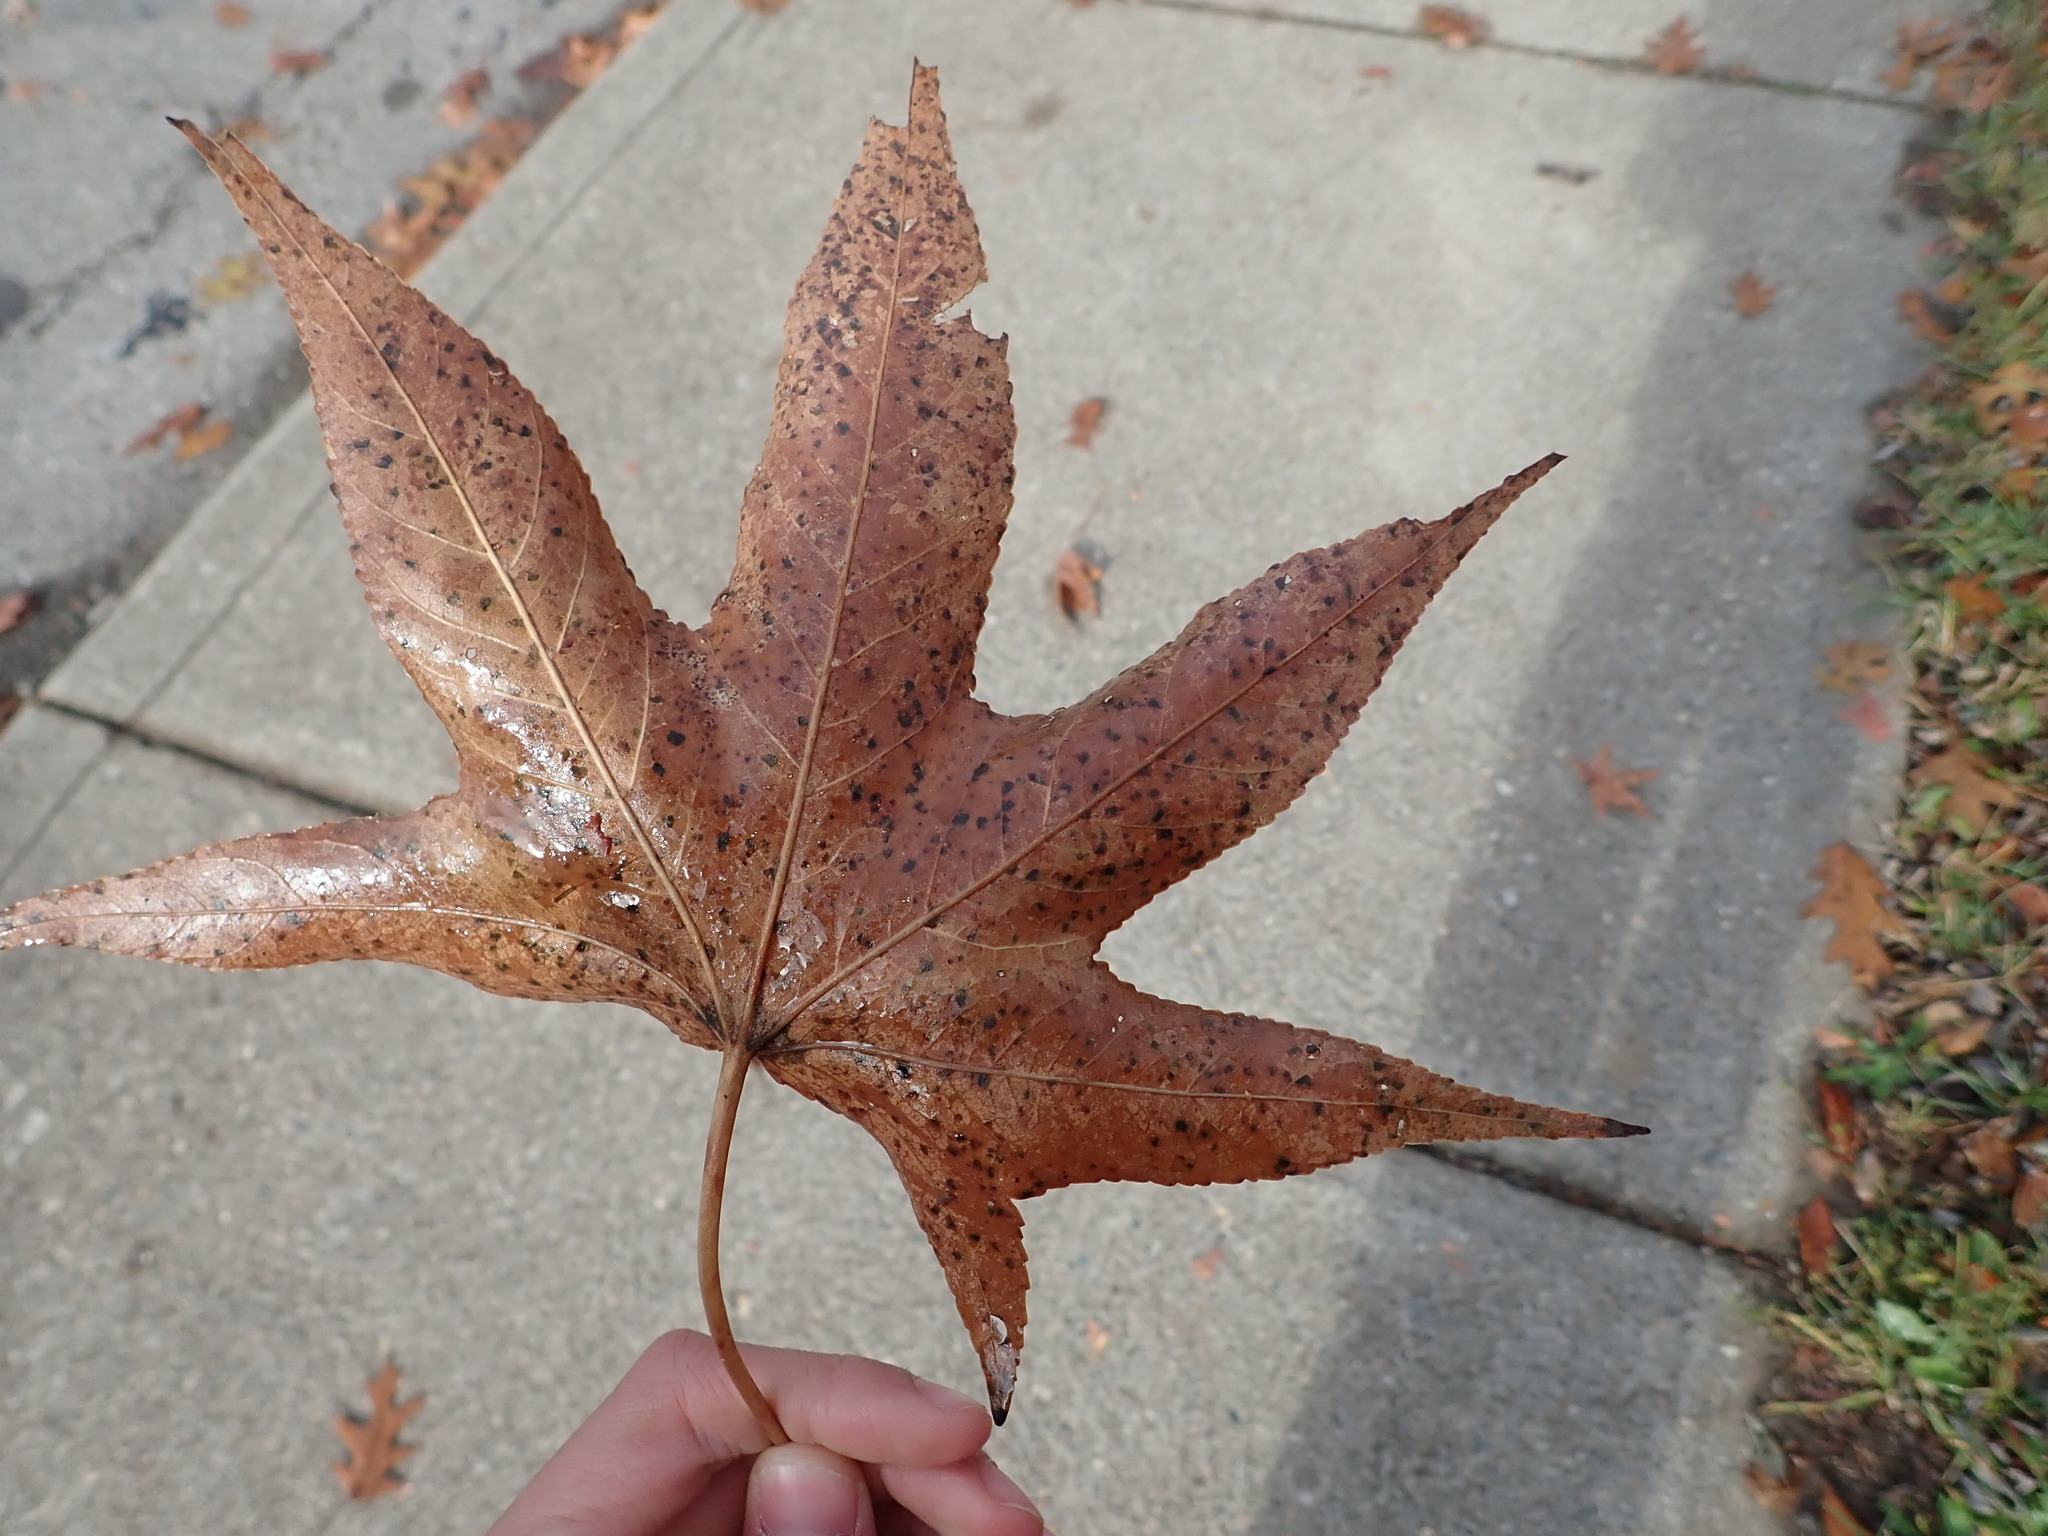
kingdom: Plantae
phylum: Tracheophyta
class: Magnoliopsida
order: Saxifragales
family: Altingiaceae
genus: Liquidambar
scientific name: Liquidambar styraciflua
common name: Sweet gum
